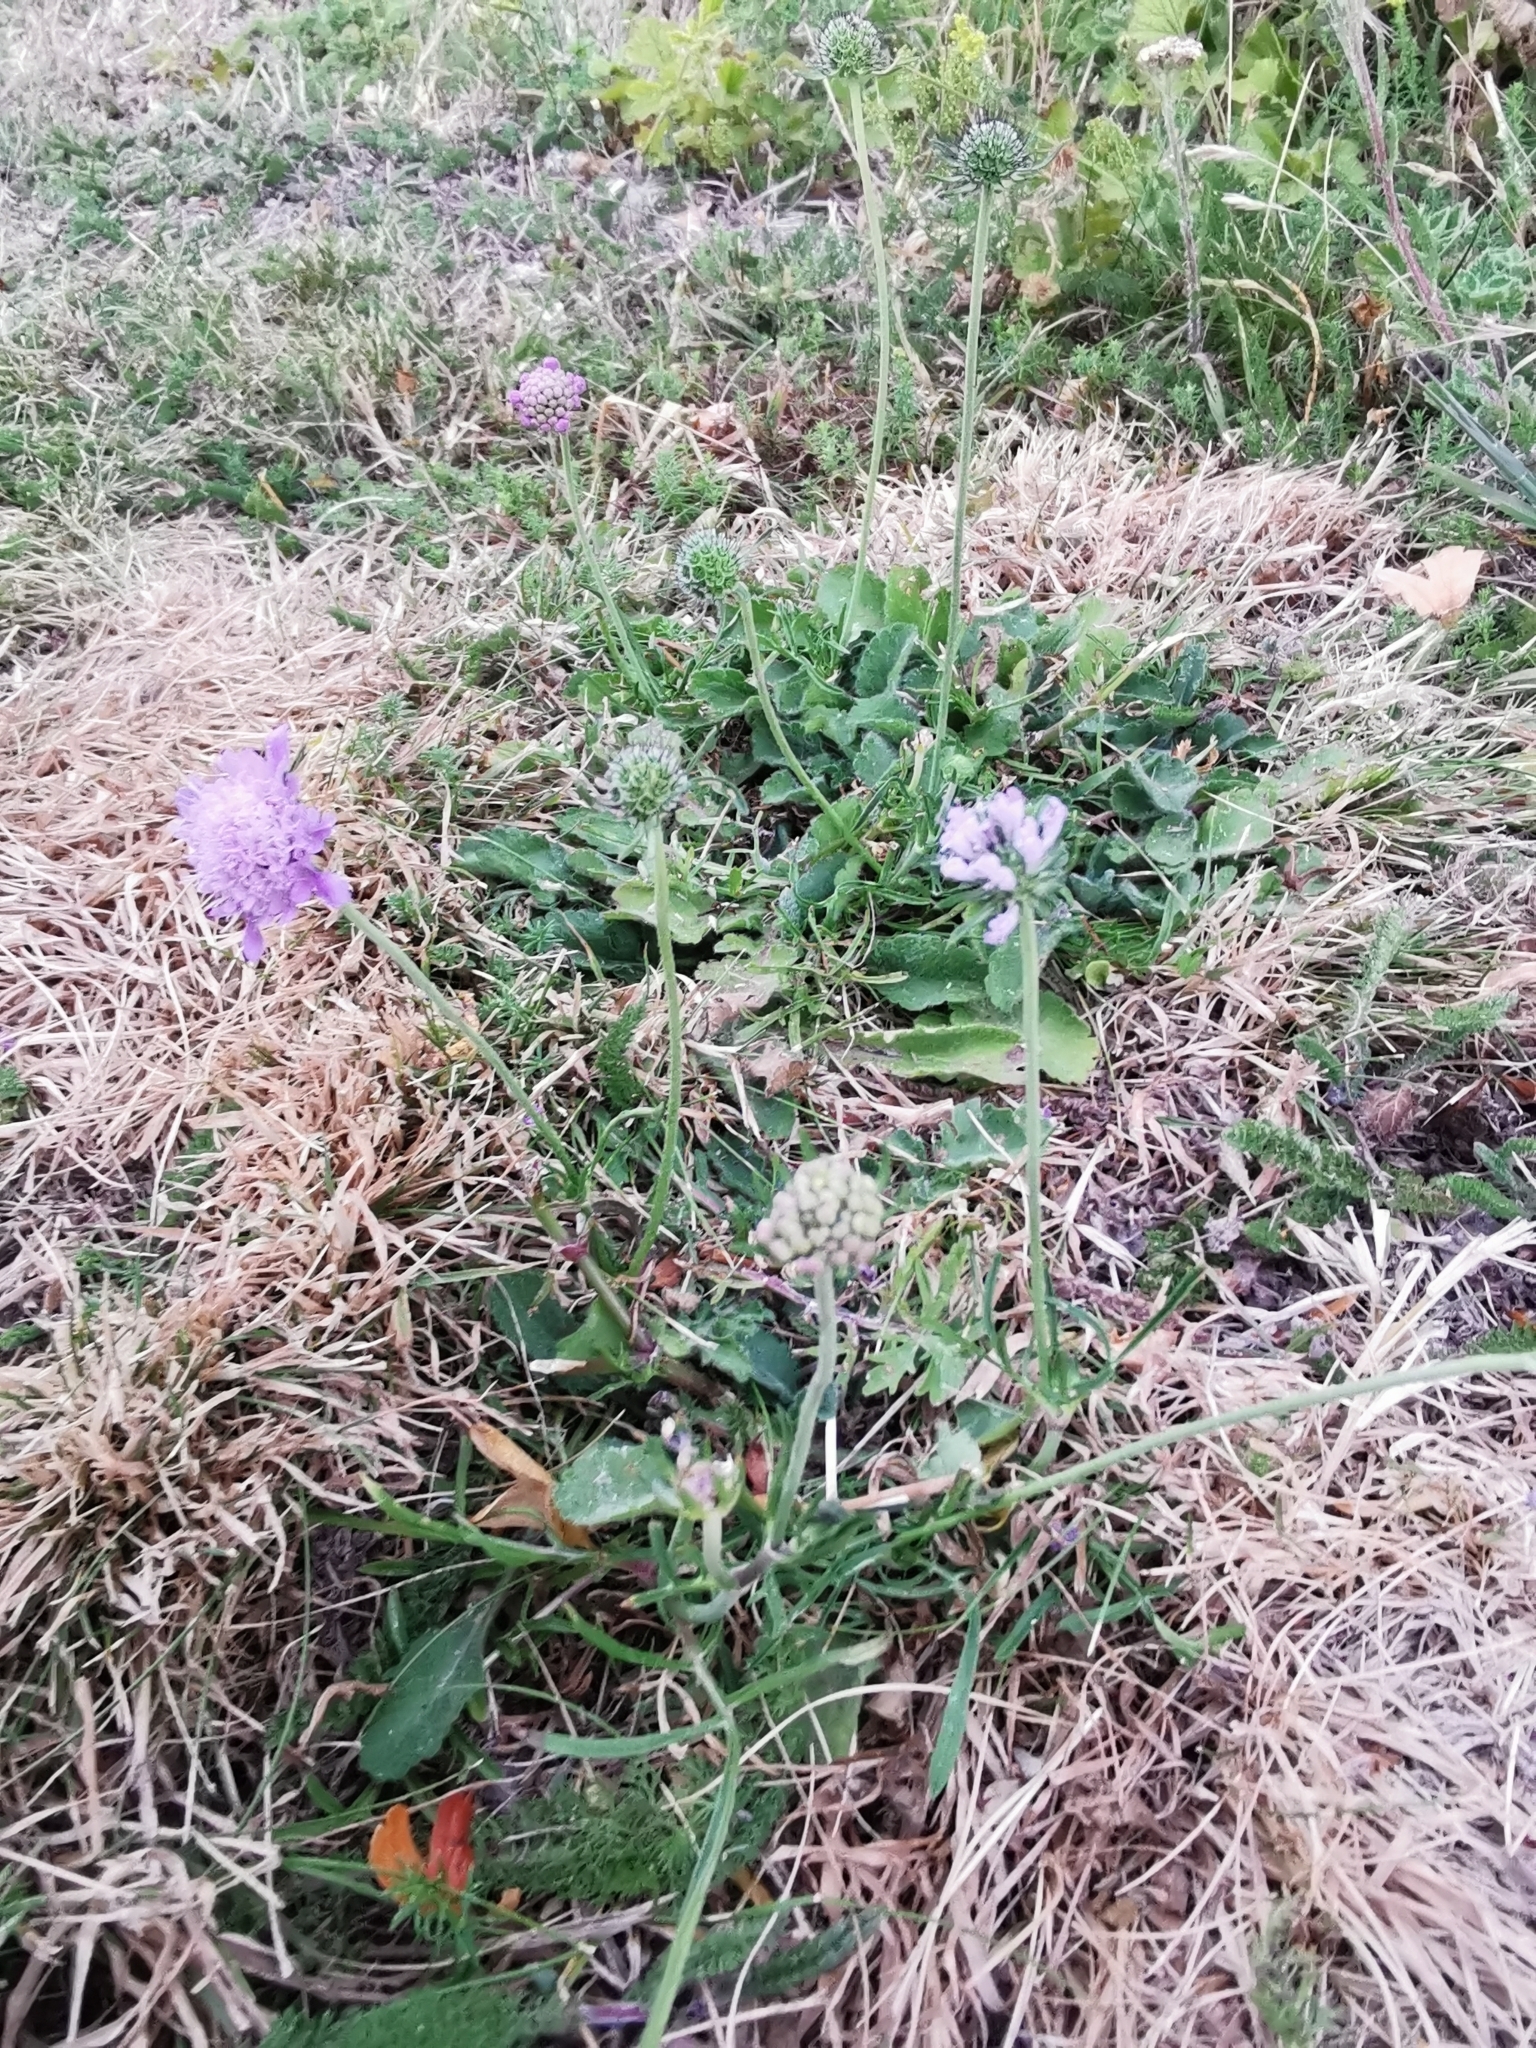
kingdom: Plantae
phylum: Tracheophyta
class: Magnoliopsida
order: Dipsacales
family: Caprifoliaceae
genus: Knautia
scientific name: Knautia arvensis
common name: Field scabiosa
